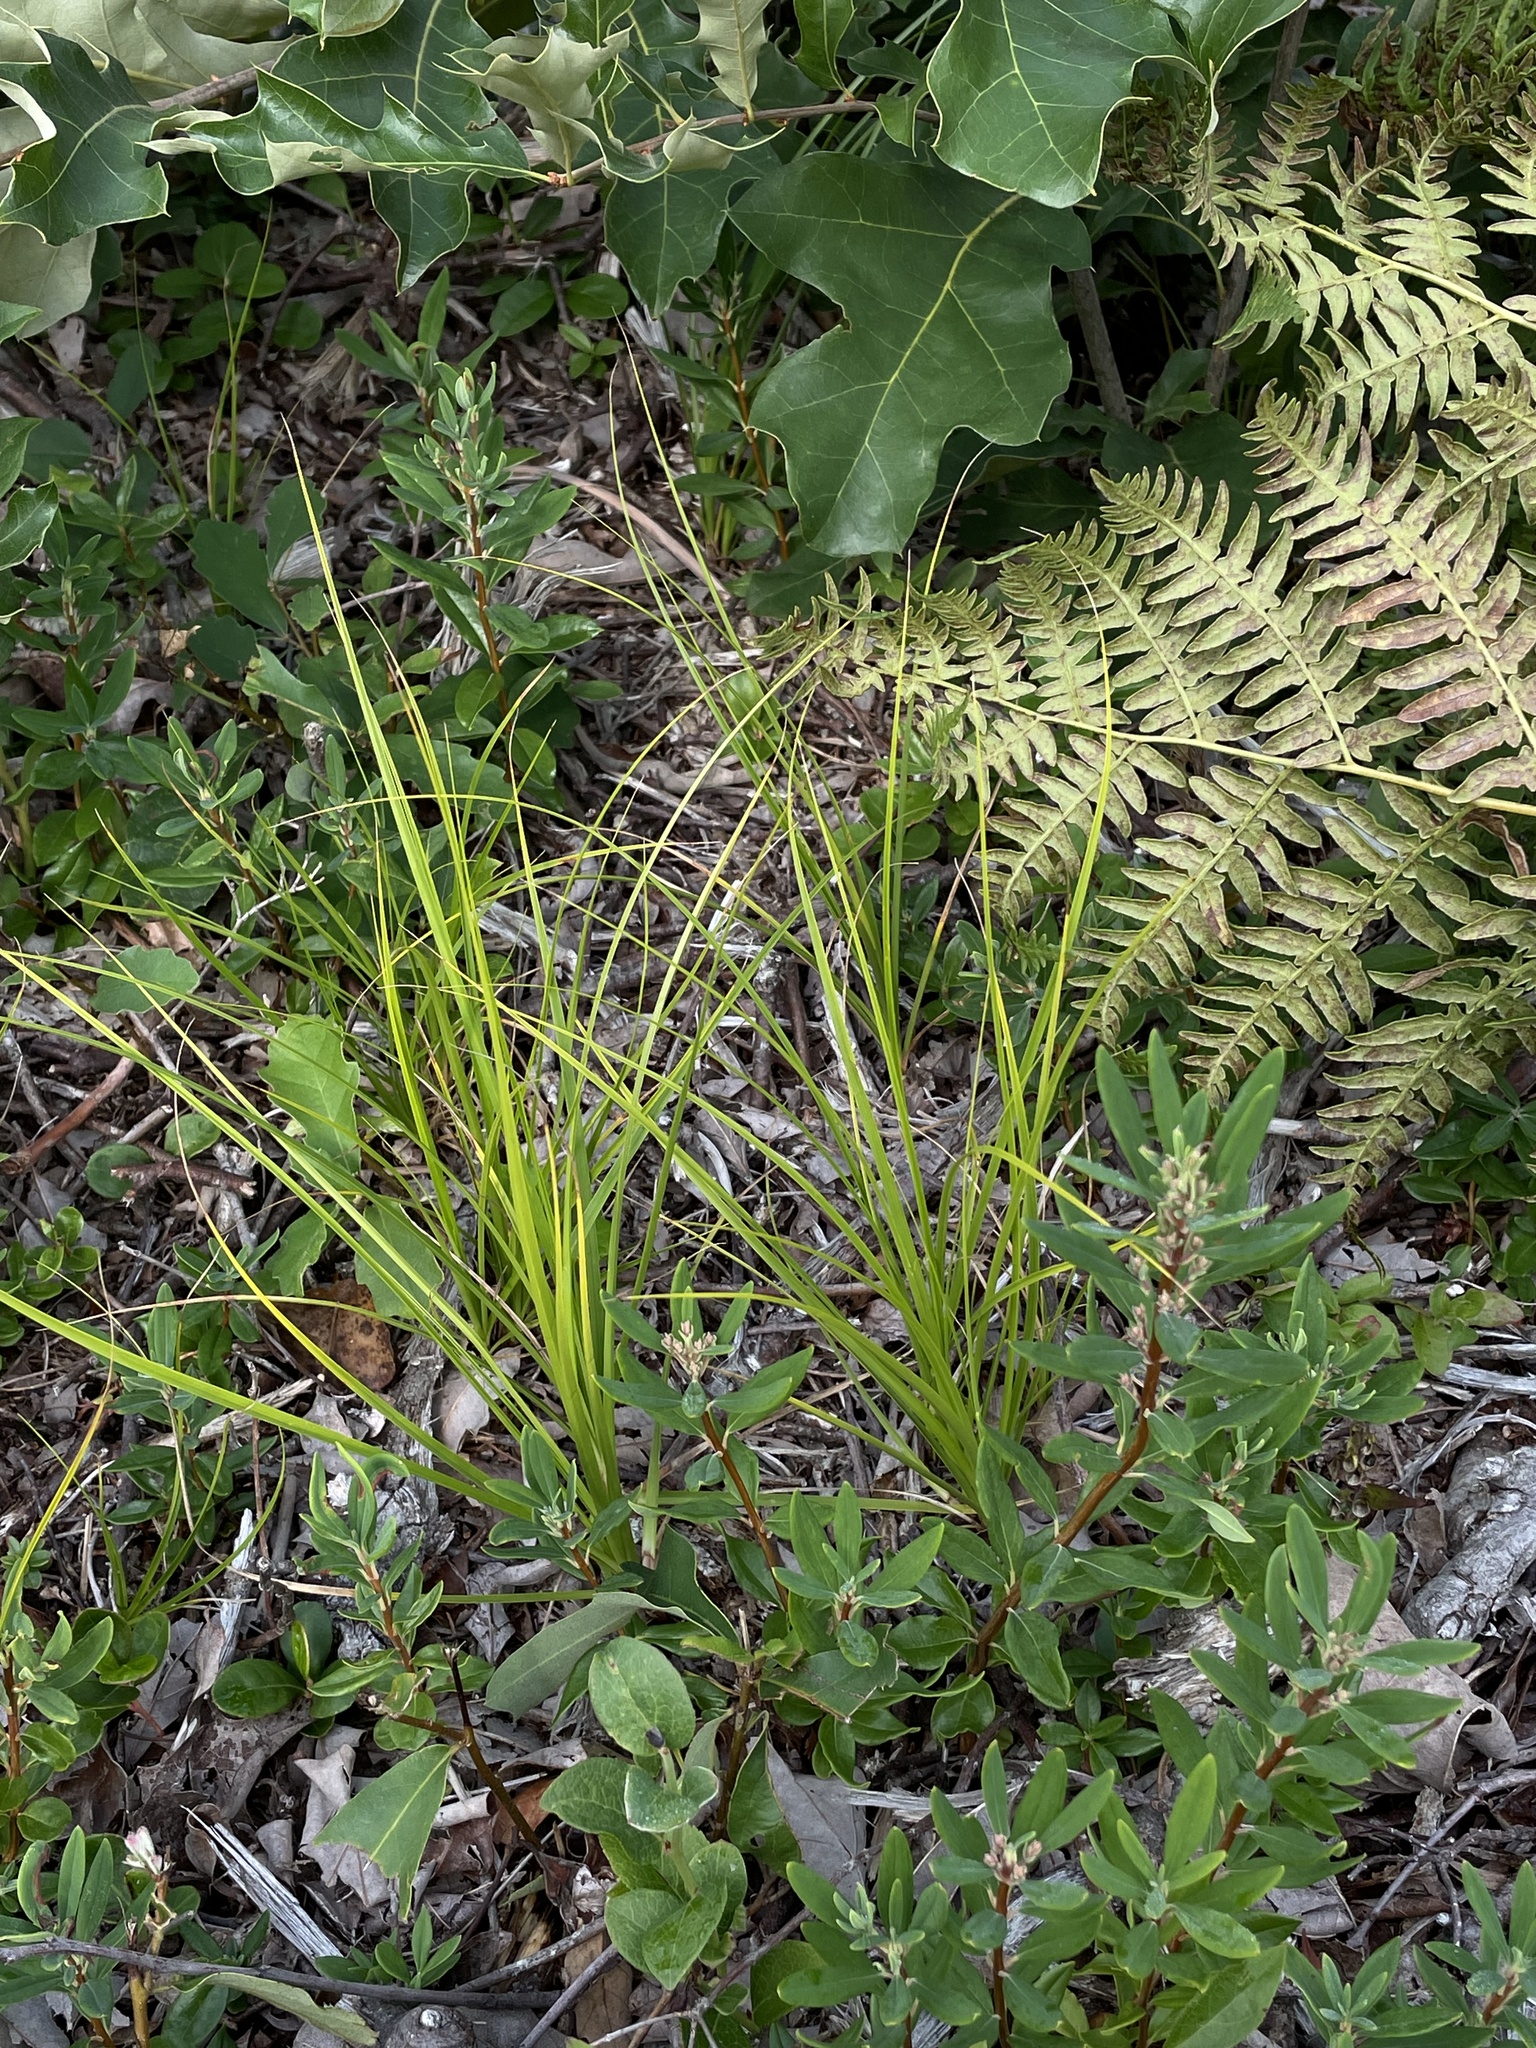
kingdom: Plantae
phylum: Tracheophyta
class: Liliopsida
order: Poales
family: Cyperaceae
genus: Carex
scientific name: Carex pensylvanica
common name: Common oak sedge
